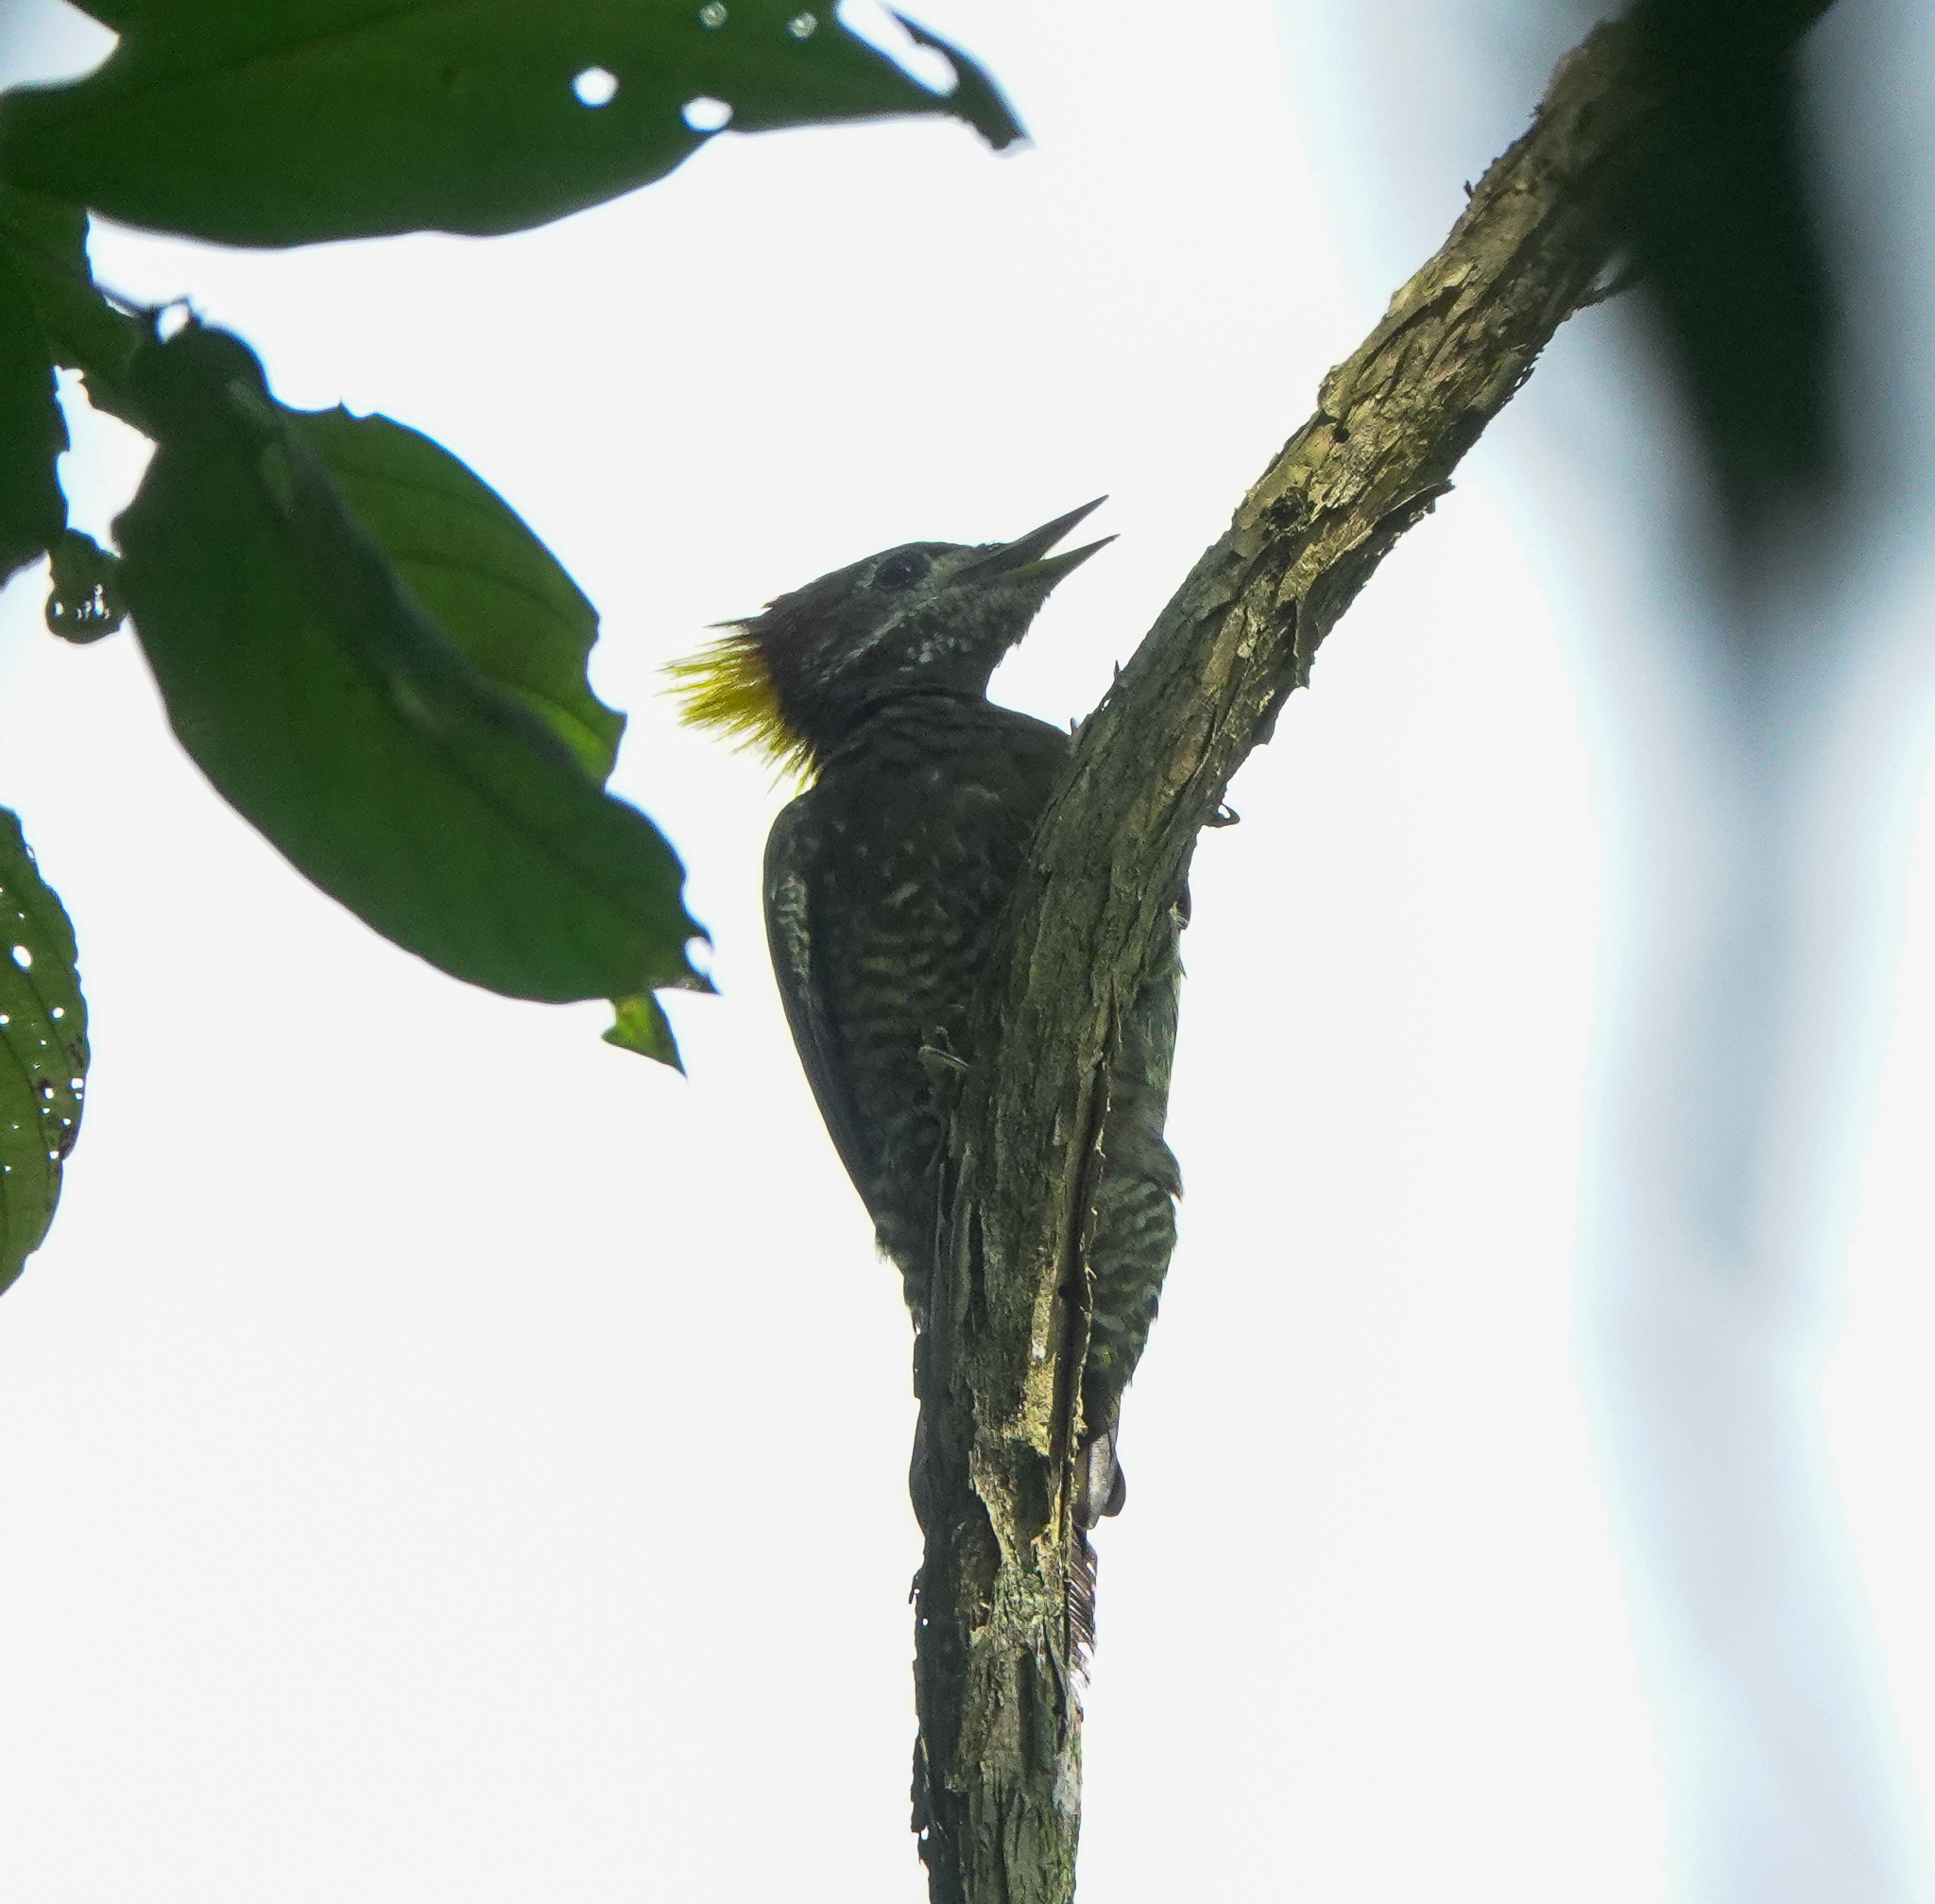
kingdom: Animalia
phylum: Chordata
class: Aves
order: Piciformes
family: Picidae
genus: Picus
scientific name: Picus chlorolophus
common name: Lesser yellownape
